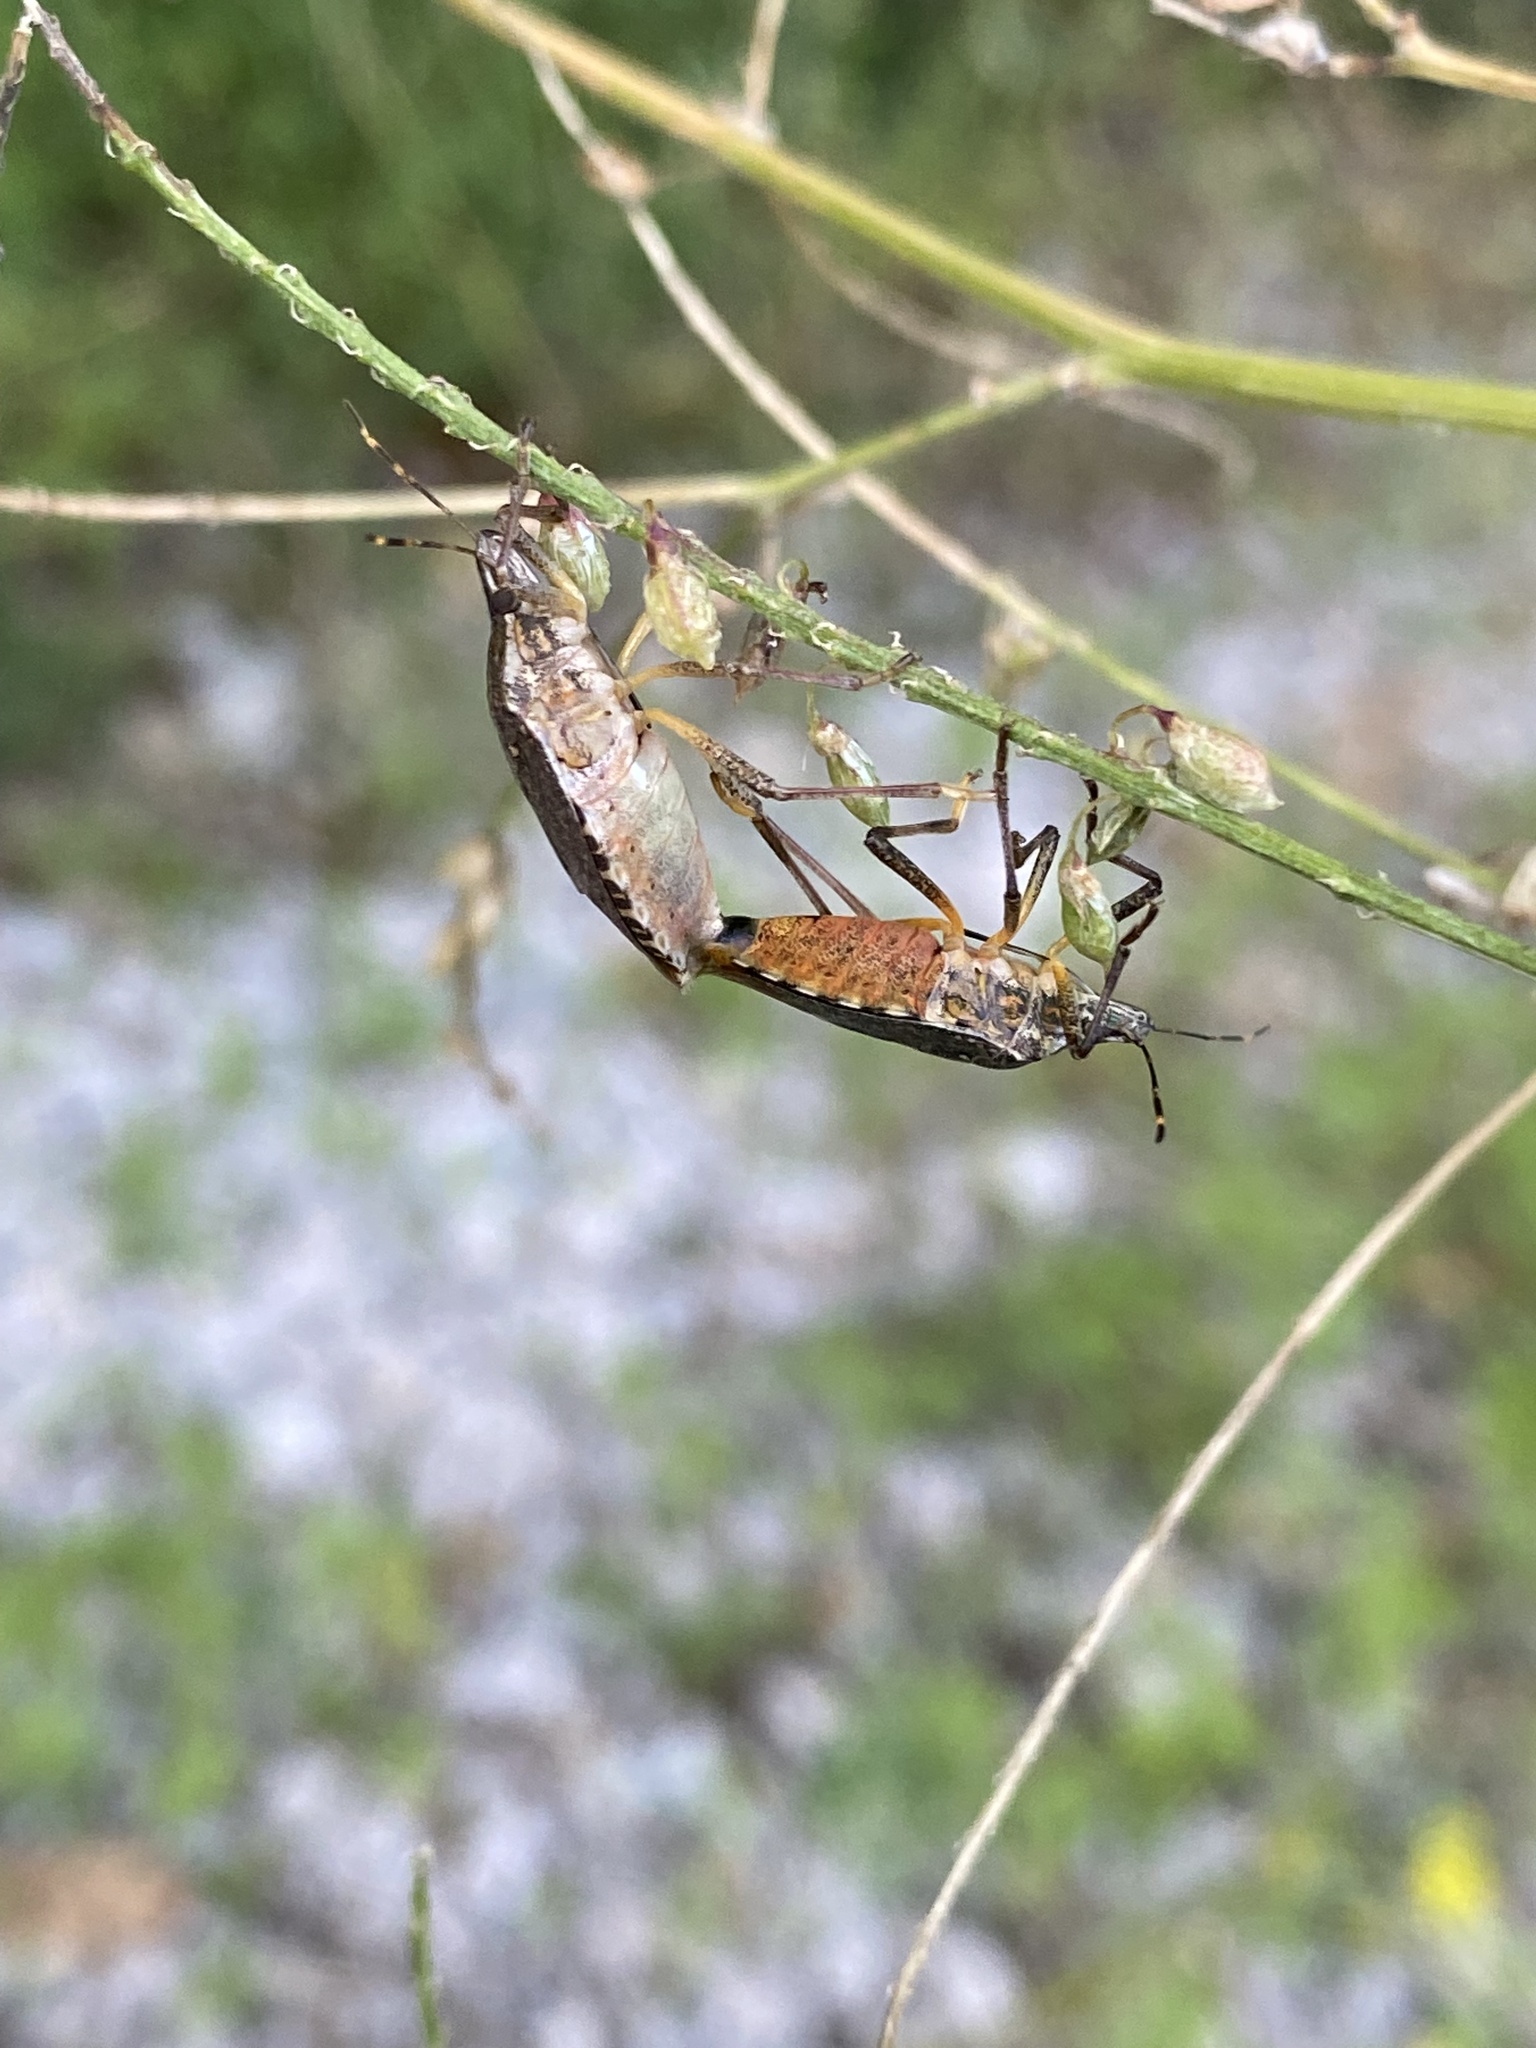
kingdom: Animalia
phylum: Arthropoda
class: Insecta
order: Hemiptera
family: Pentatomidae
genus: Halyomorpha
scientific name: Halyomorpha halys
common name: Brown marmorated stink bug
